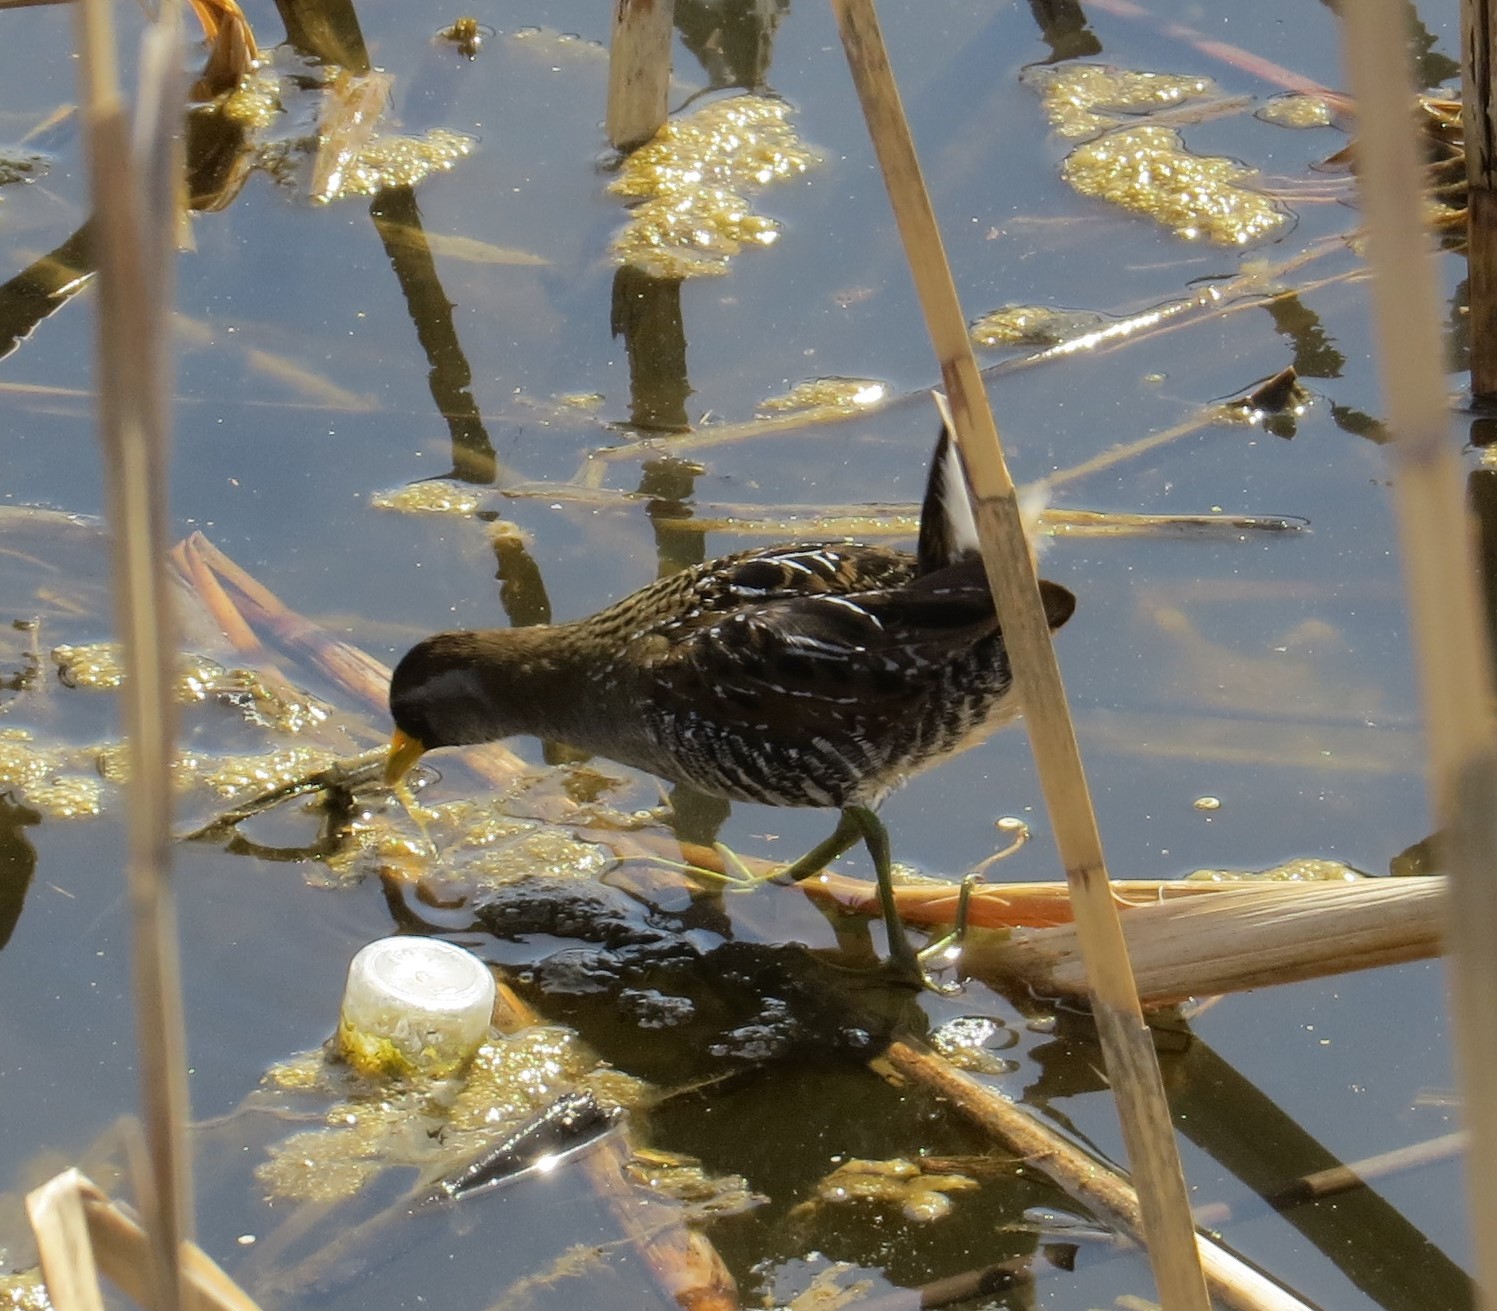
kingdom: Animalia
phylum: Chordata
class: Aves
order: Gruiformes
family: Rallidae
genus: Porzana
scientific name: Porzana carolina
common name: Sora
